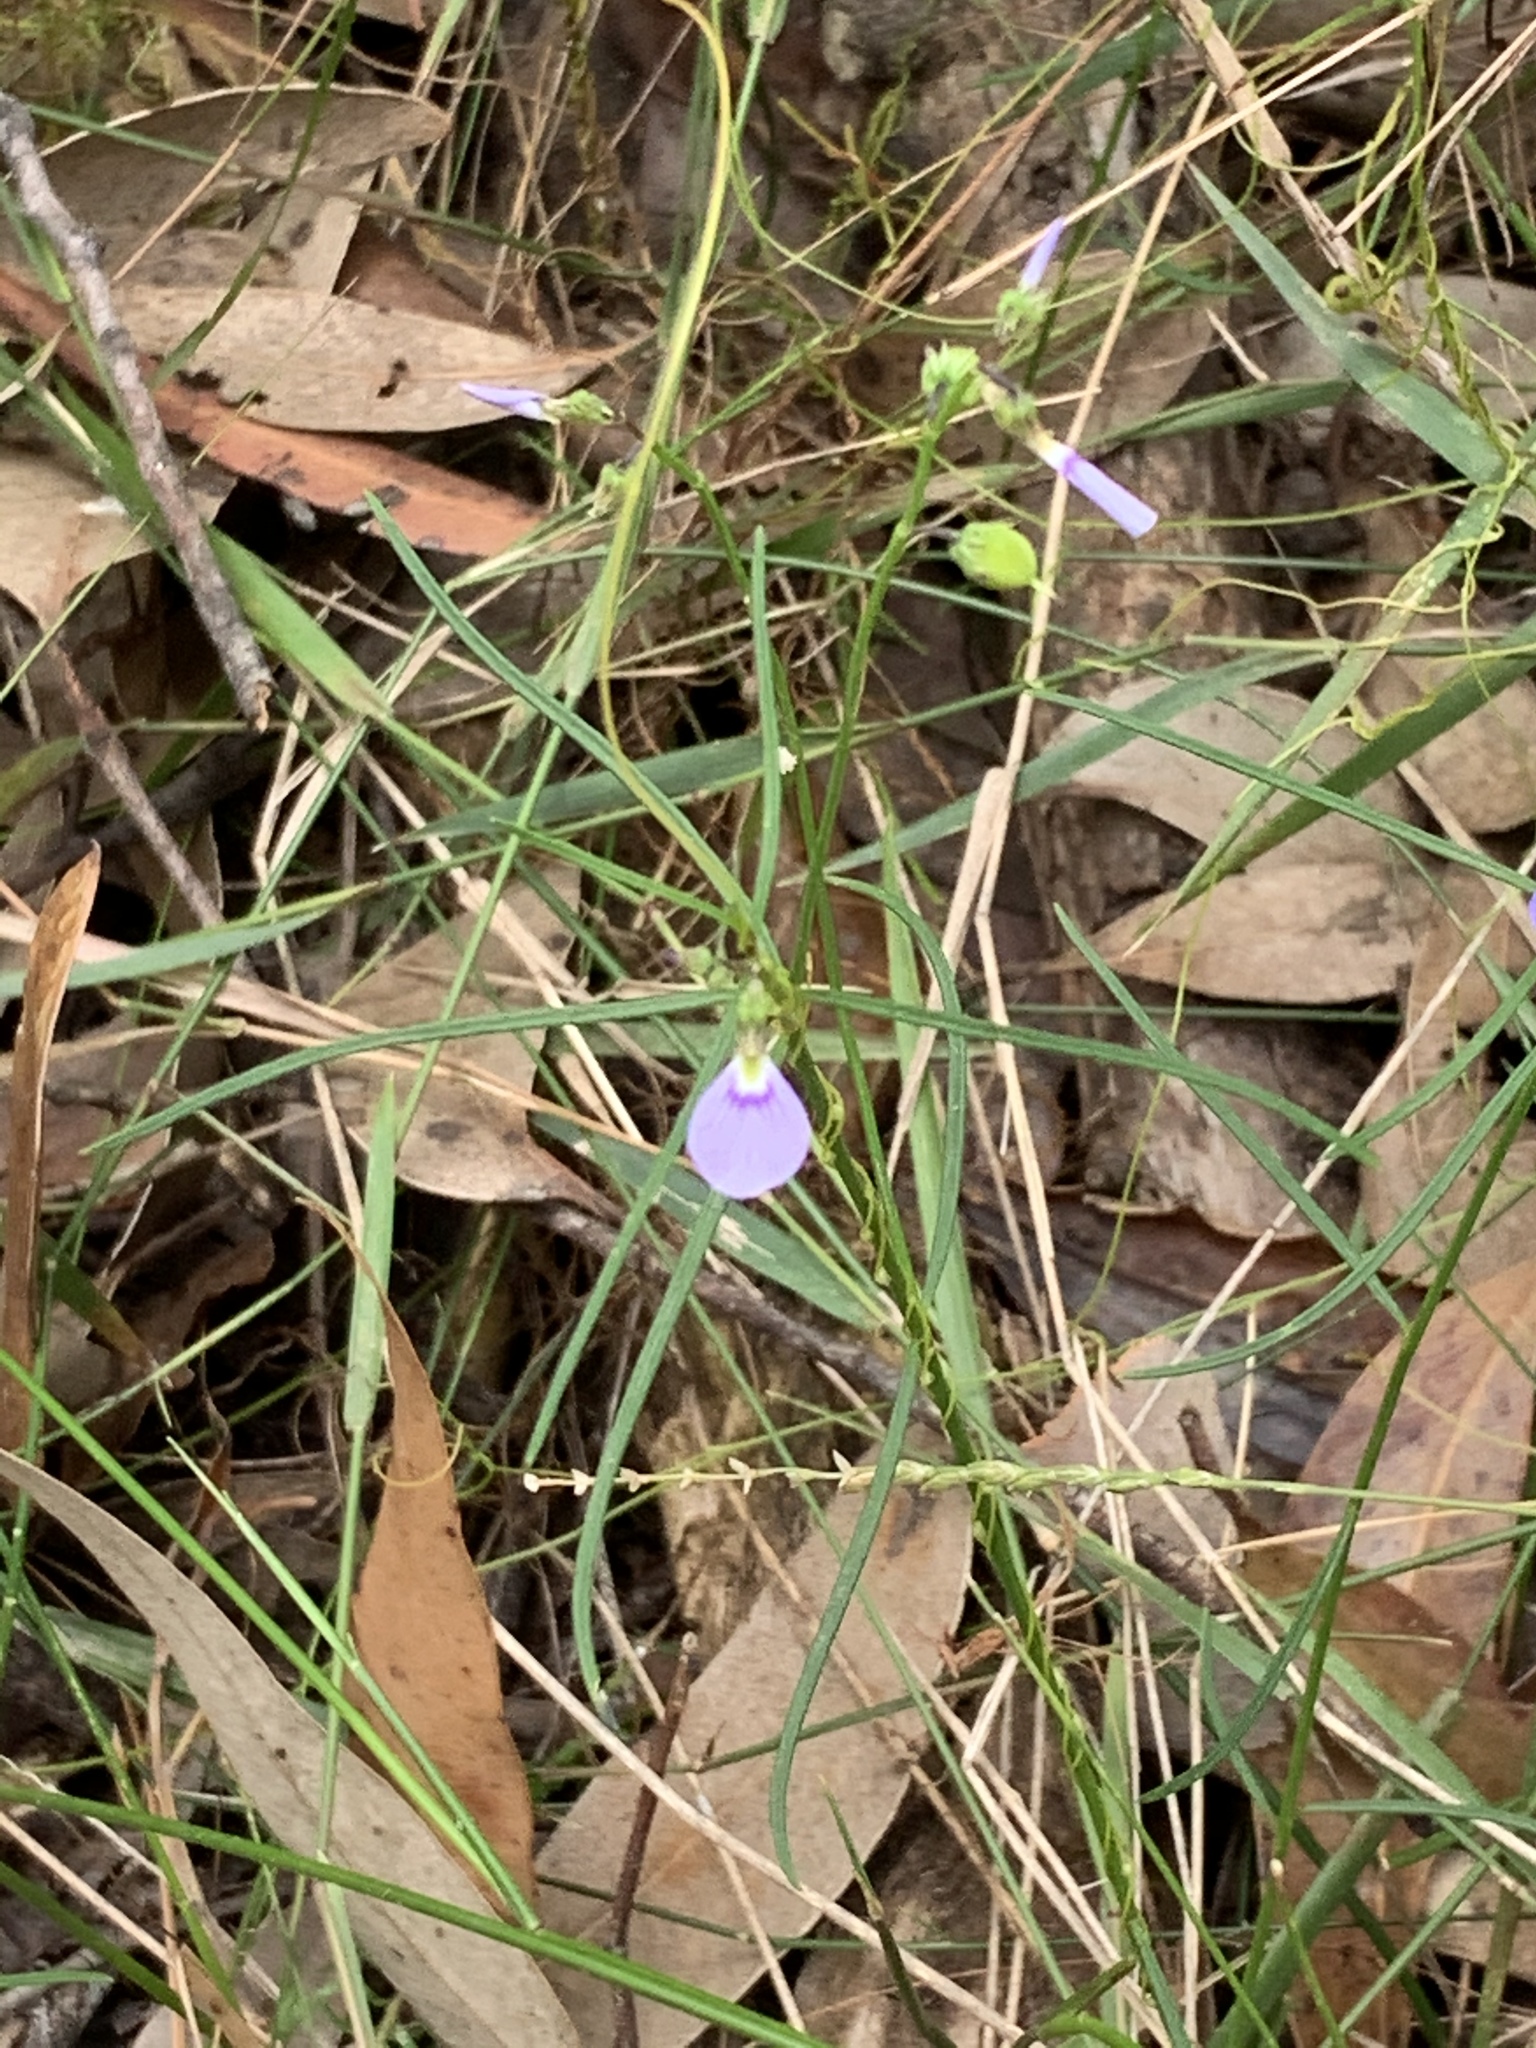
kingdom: Plantae
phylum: Tracheophyta
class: Magnoliopsida
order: Malpighiales
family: Violaceae
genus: Pigea
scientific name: Pigea monopetala
